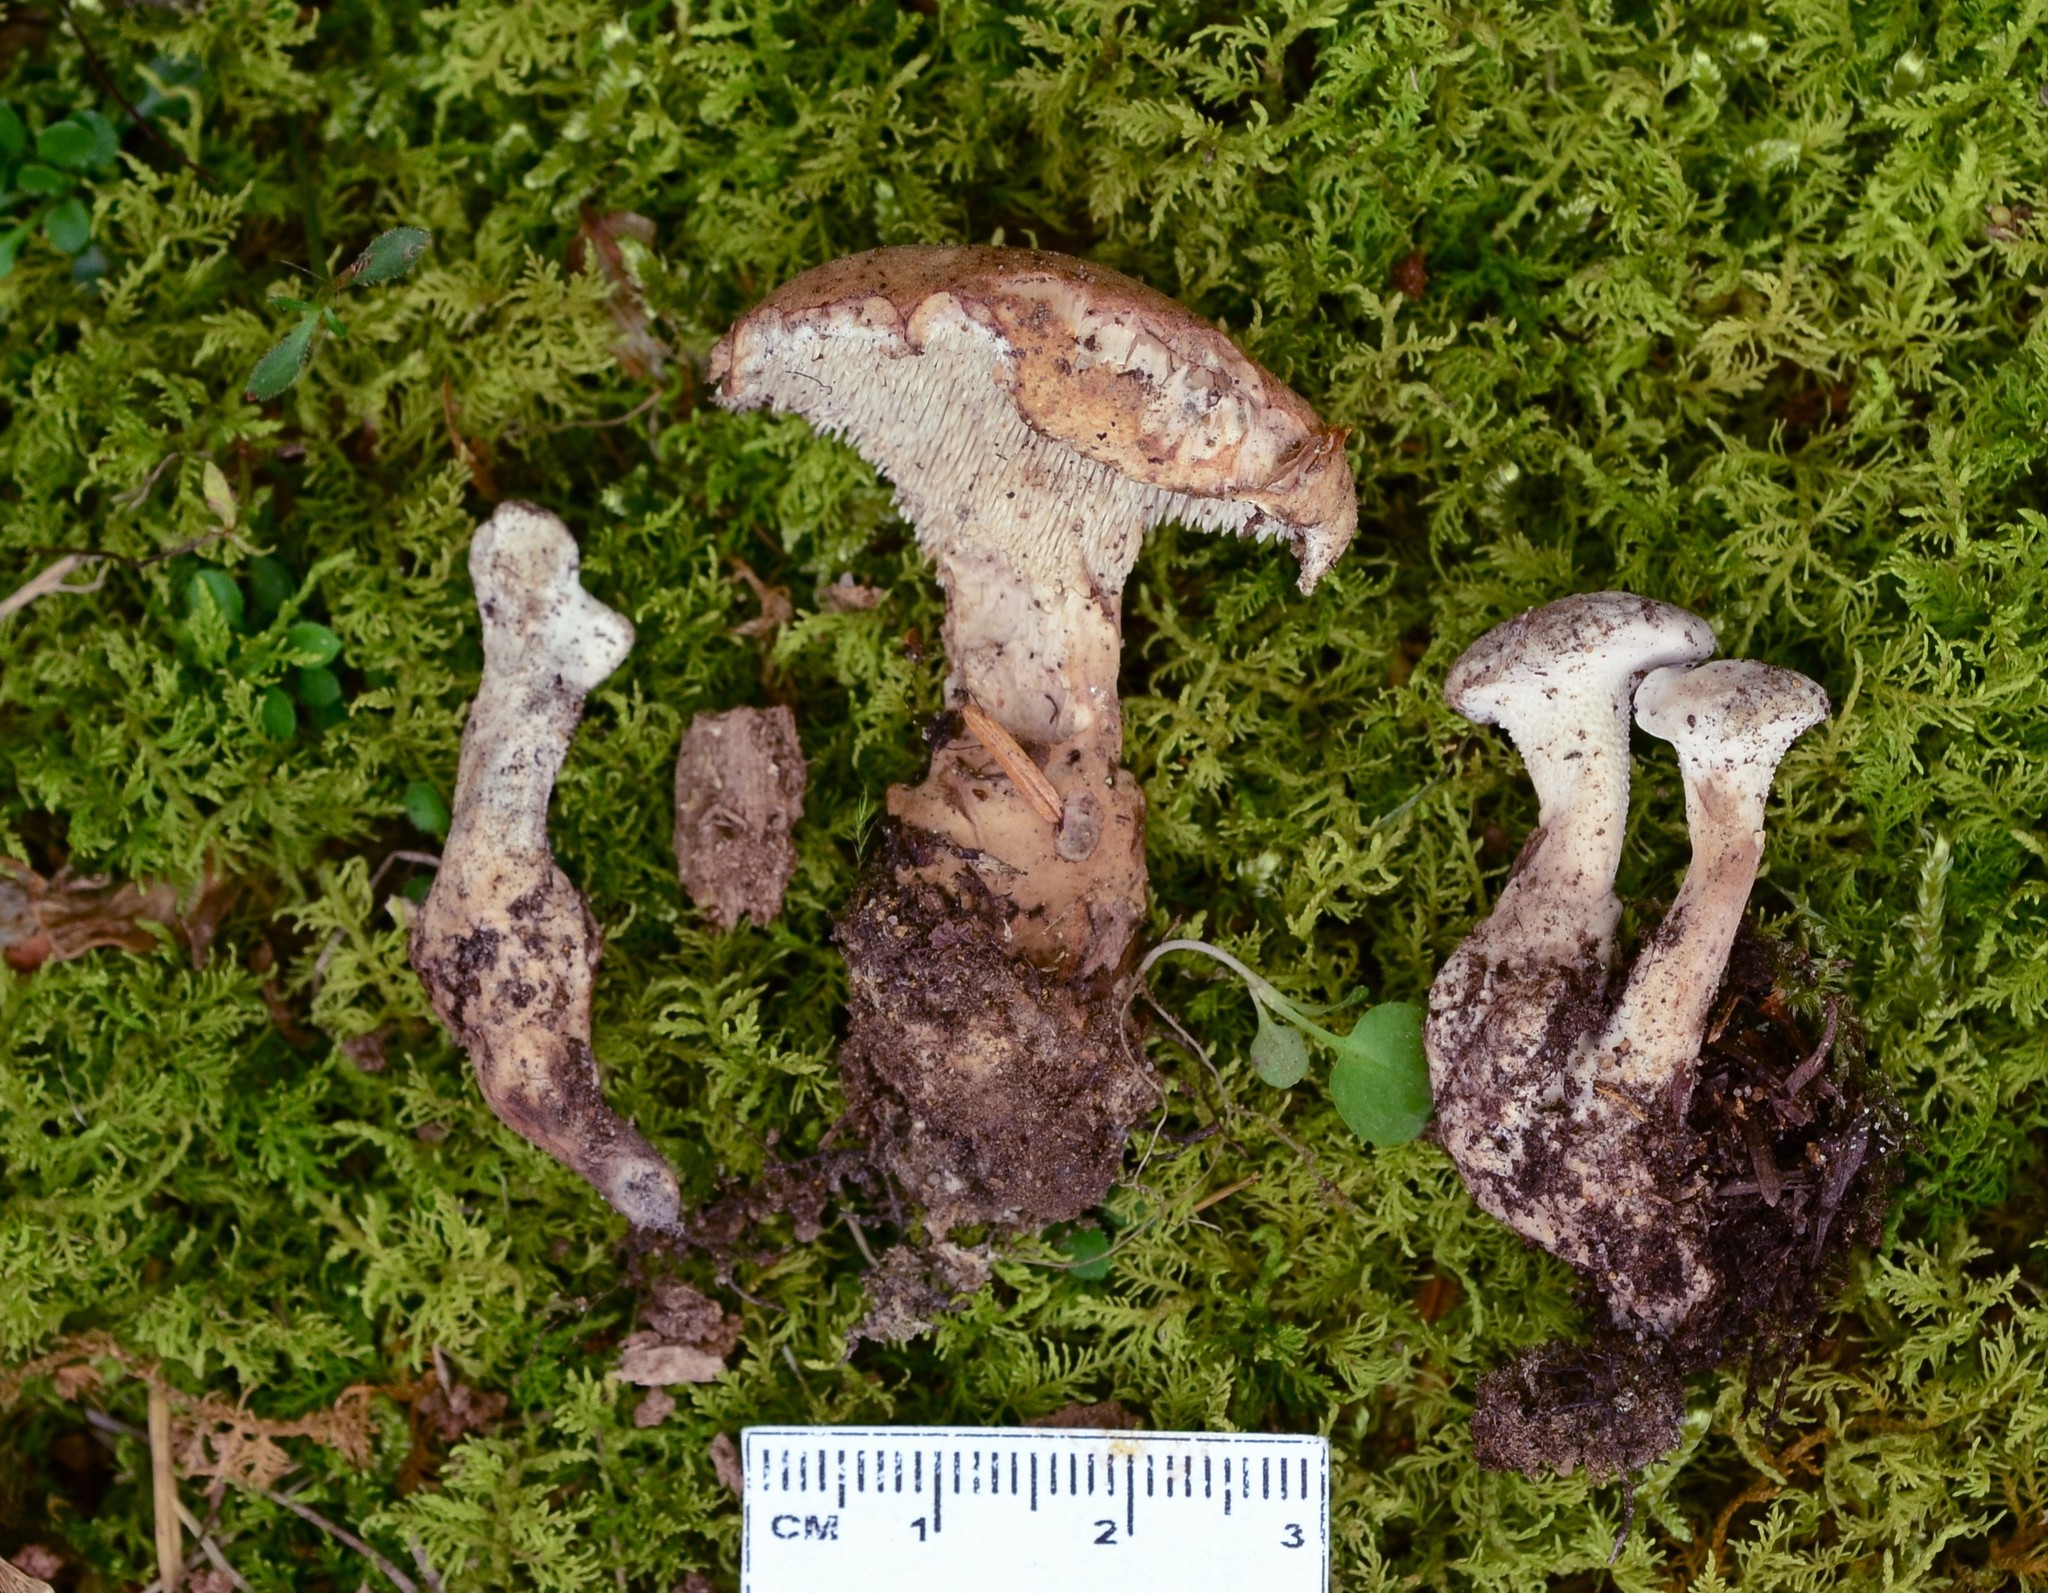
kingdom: Fungi
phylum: Basidiomycota
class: Agaricomycetes
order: Thelephorales
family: Thelephoraceae
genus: Phellodon
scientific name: Phellodon violascens
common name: Spruce tooth
